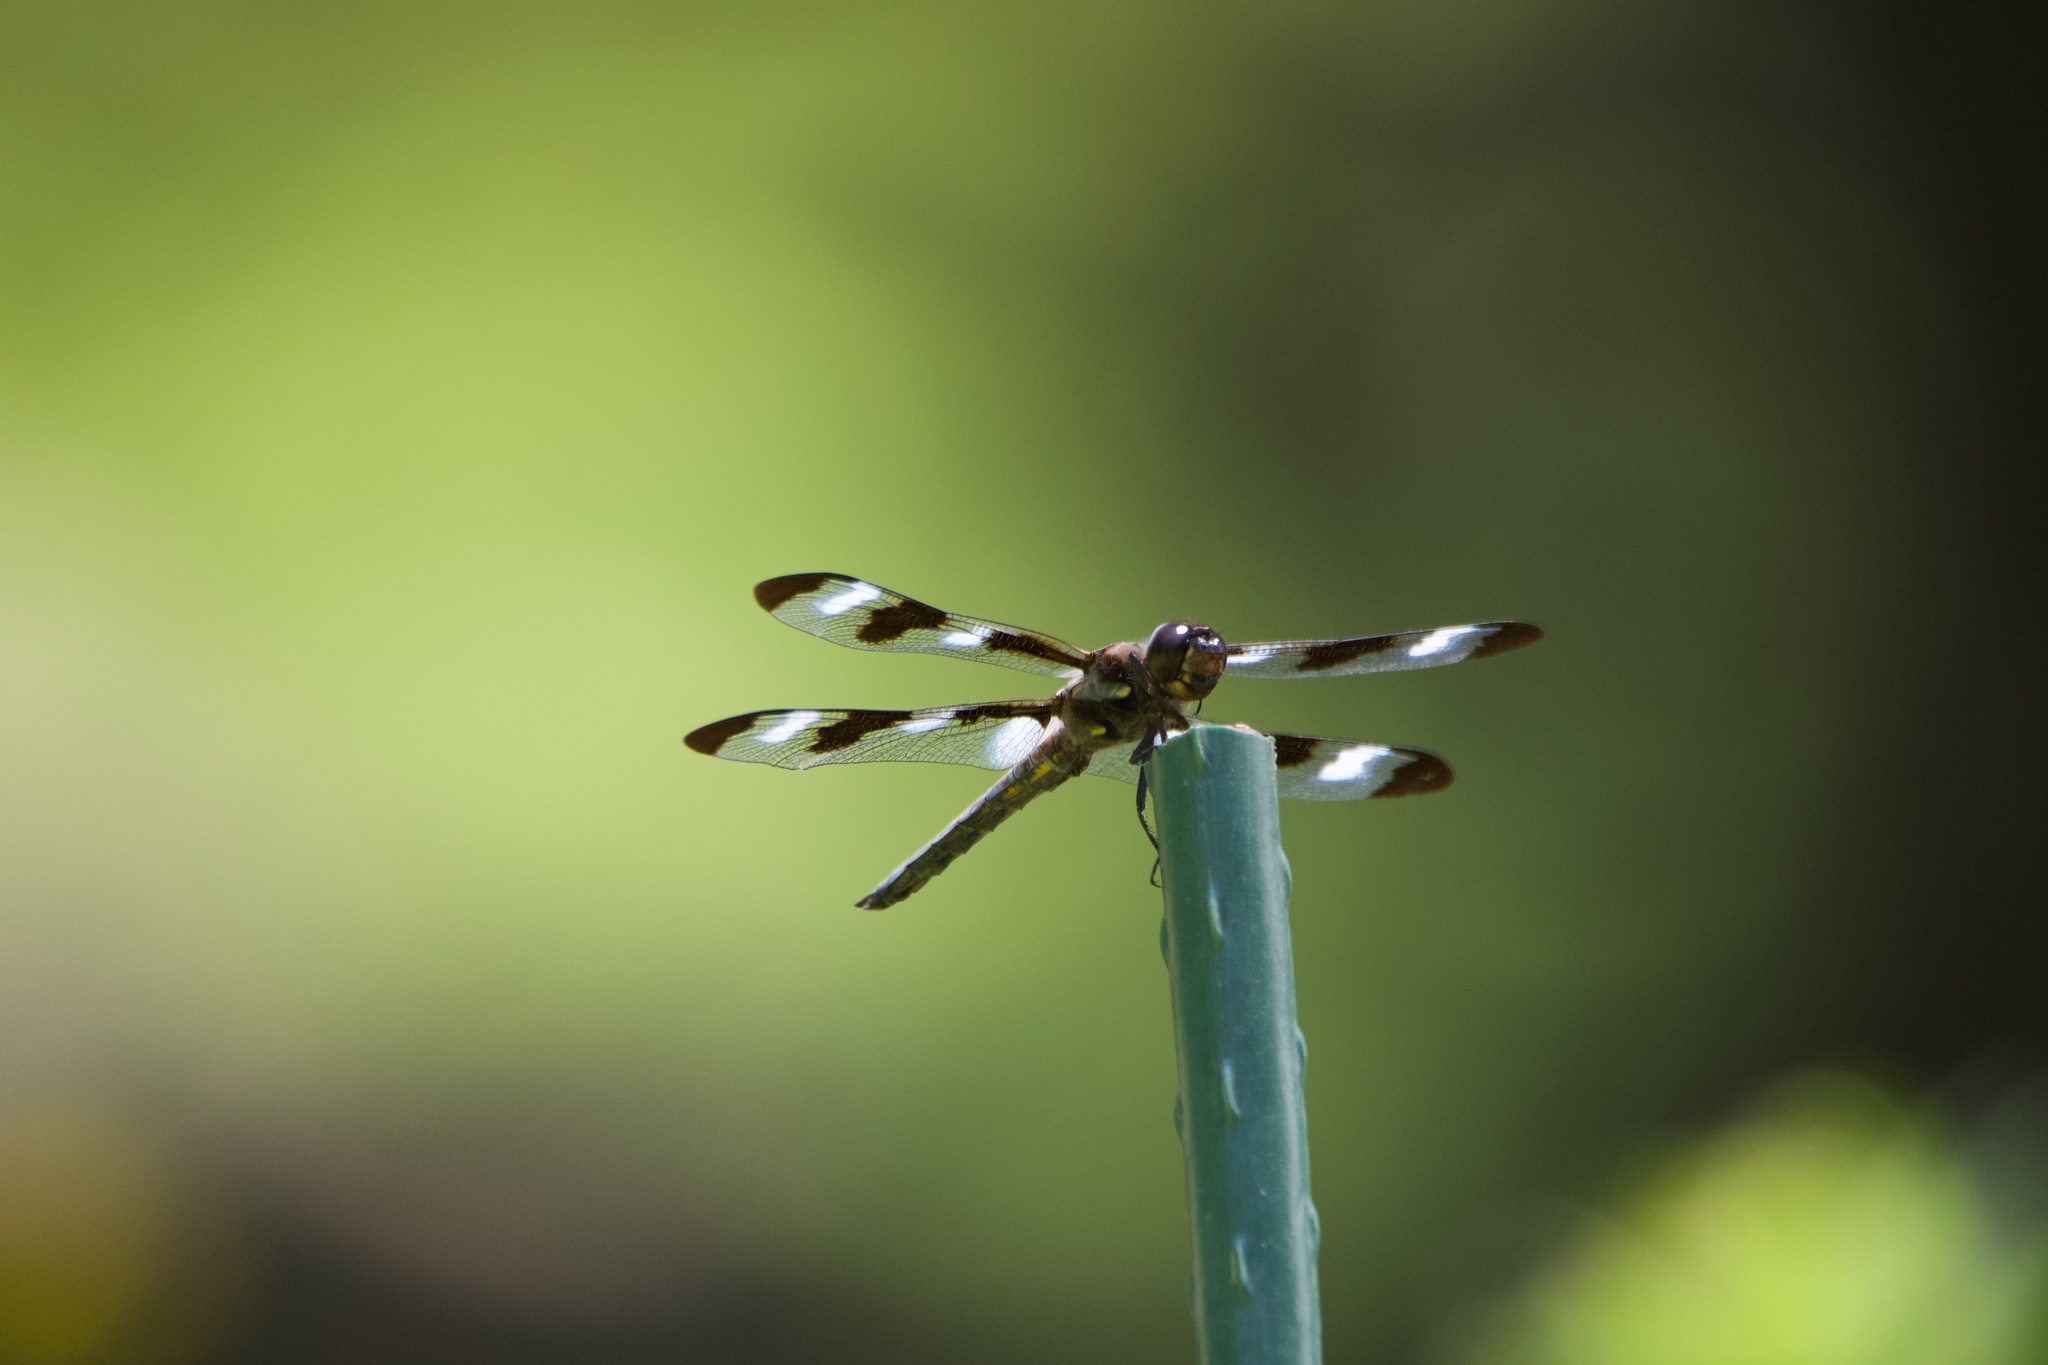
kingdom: Animalia
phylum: Arthropoda
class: Insecta
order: Odonata
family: Libellulidae
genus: Libellula
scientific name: Libellula pulchella
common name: Twelve-spotted skimmer
